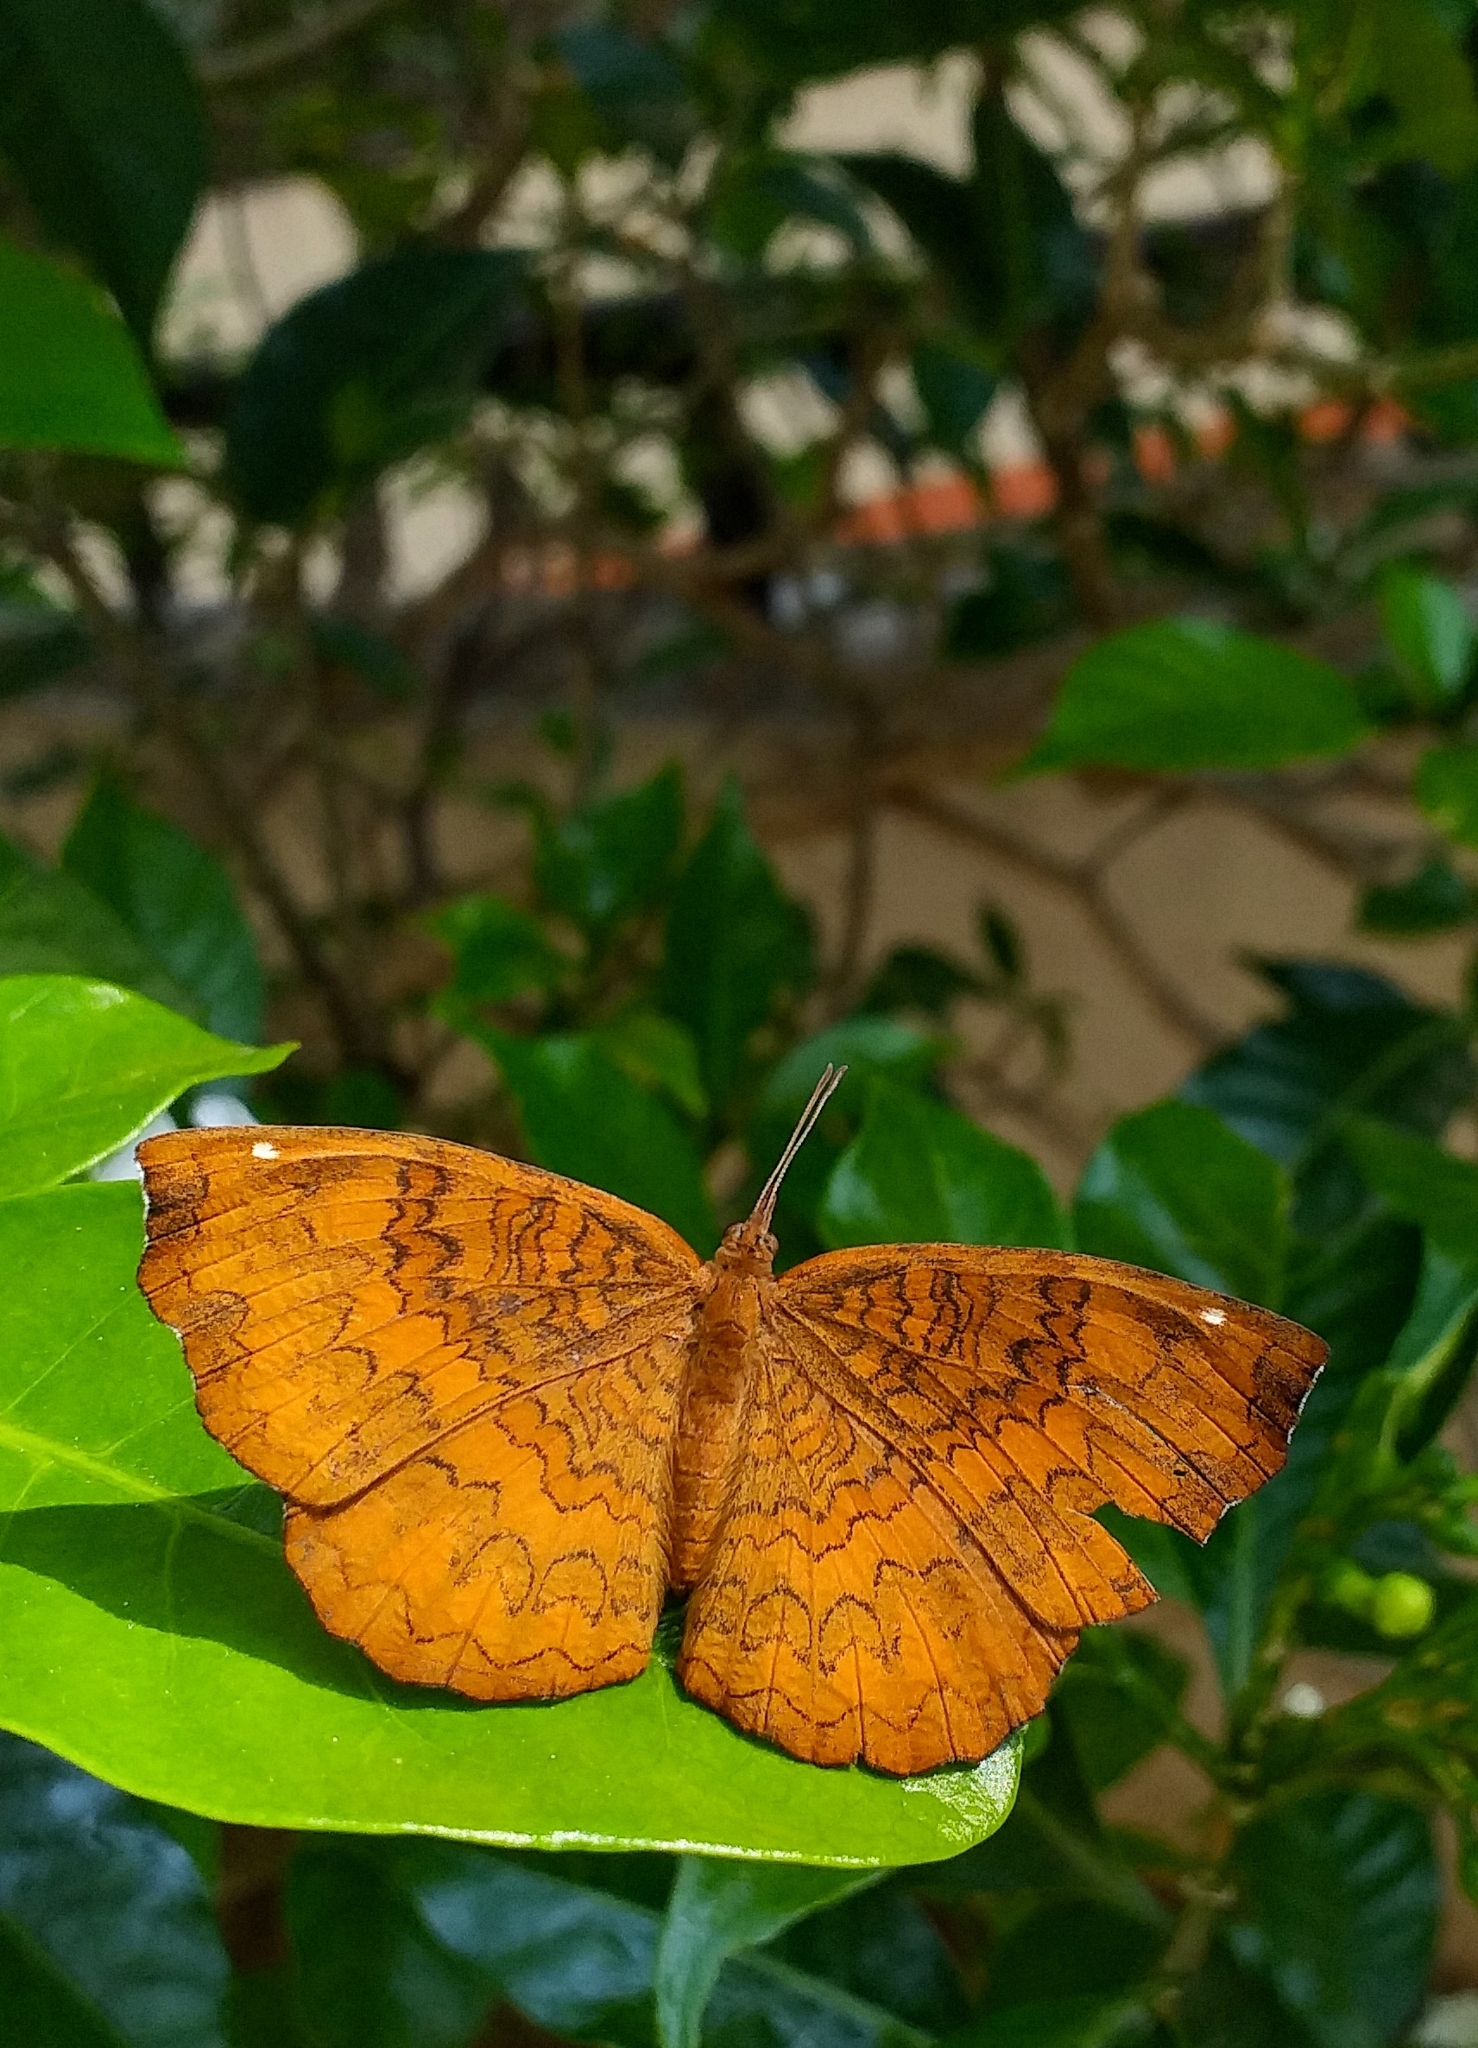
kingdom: Animalia
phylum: Arthropoda
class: Insecta
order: Lepidoptera
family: Nymphalidae
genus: Ariadne
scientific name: Ariadne merione
